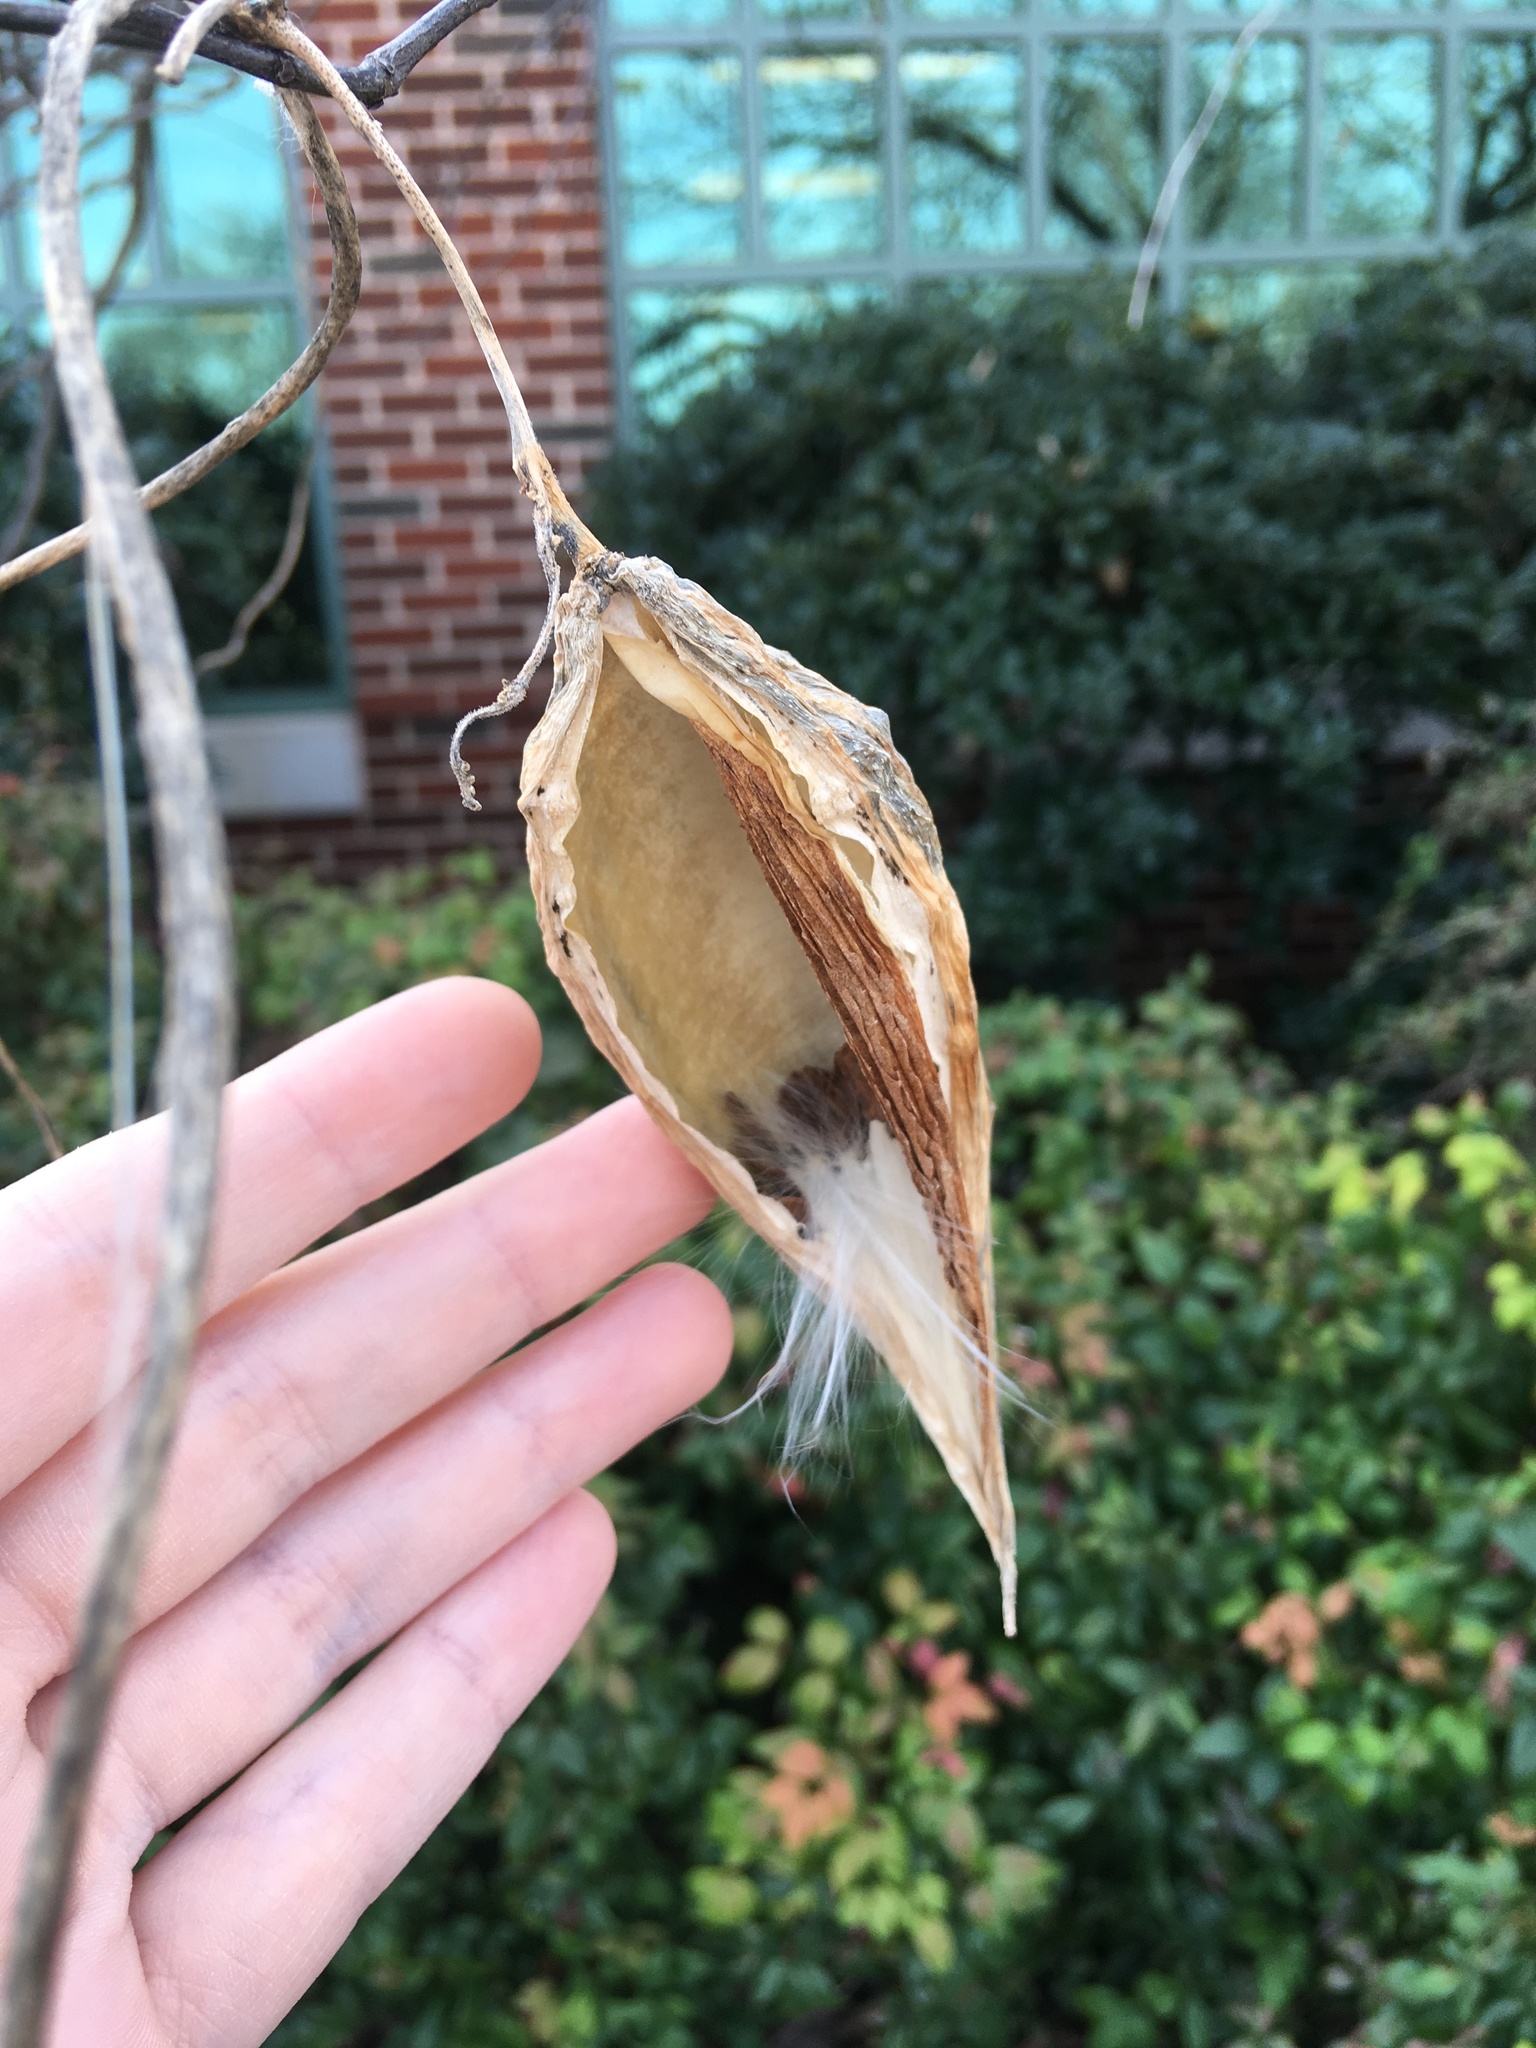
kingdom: Plantae
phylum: Tracheophyta
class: Magnoliopsida
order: Gentianales
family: Apocynaceae
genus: Cynanchum
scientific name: Cynanchum laeve
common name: Sandvine
